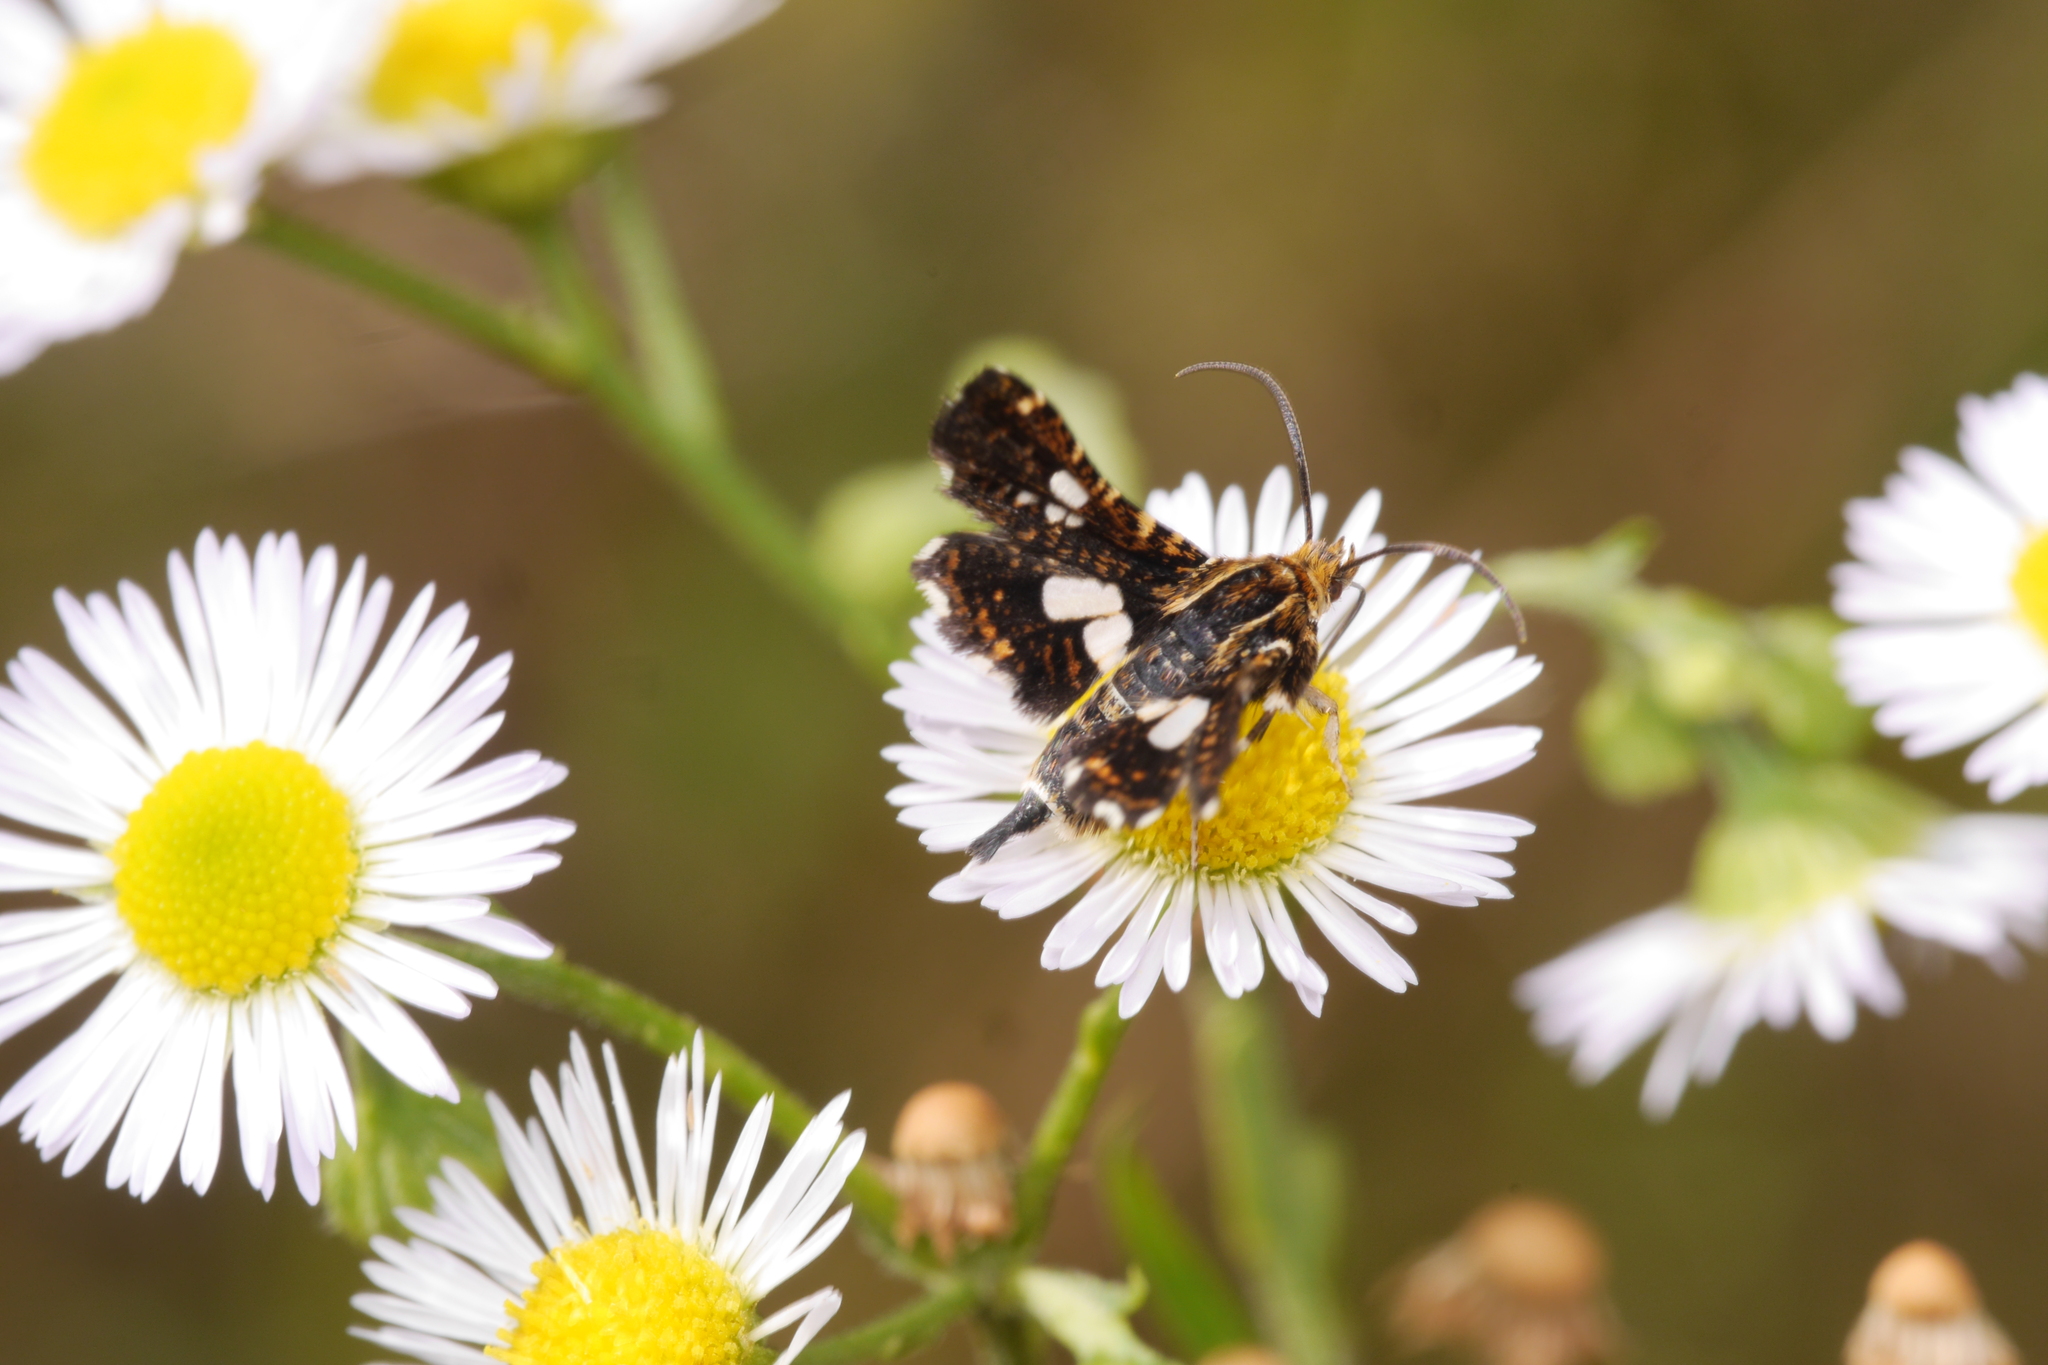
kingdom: Animalia
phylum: Arthropoda
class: Insecta
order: Lepidoptera
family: Thyrididae
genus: Thyris
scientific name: Thyris fenestrella
